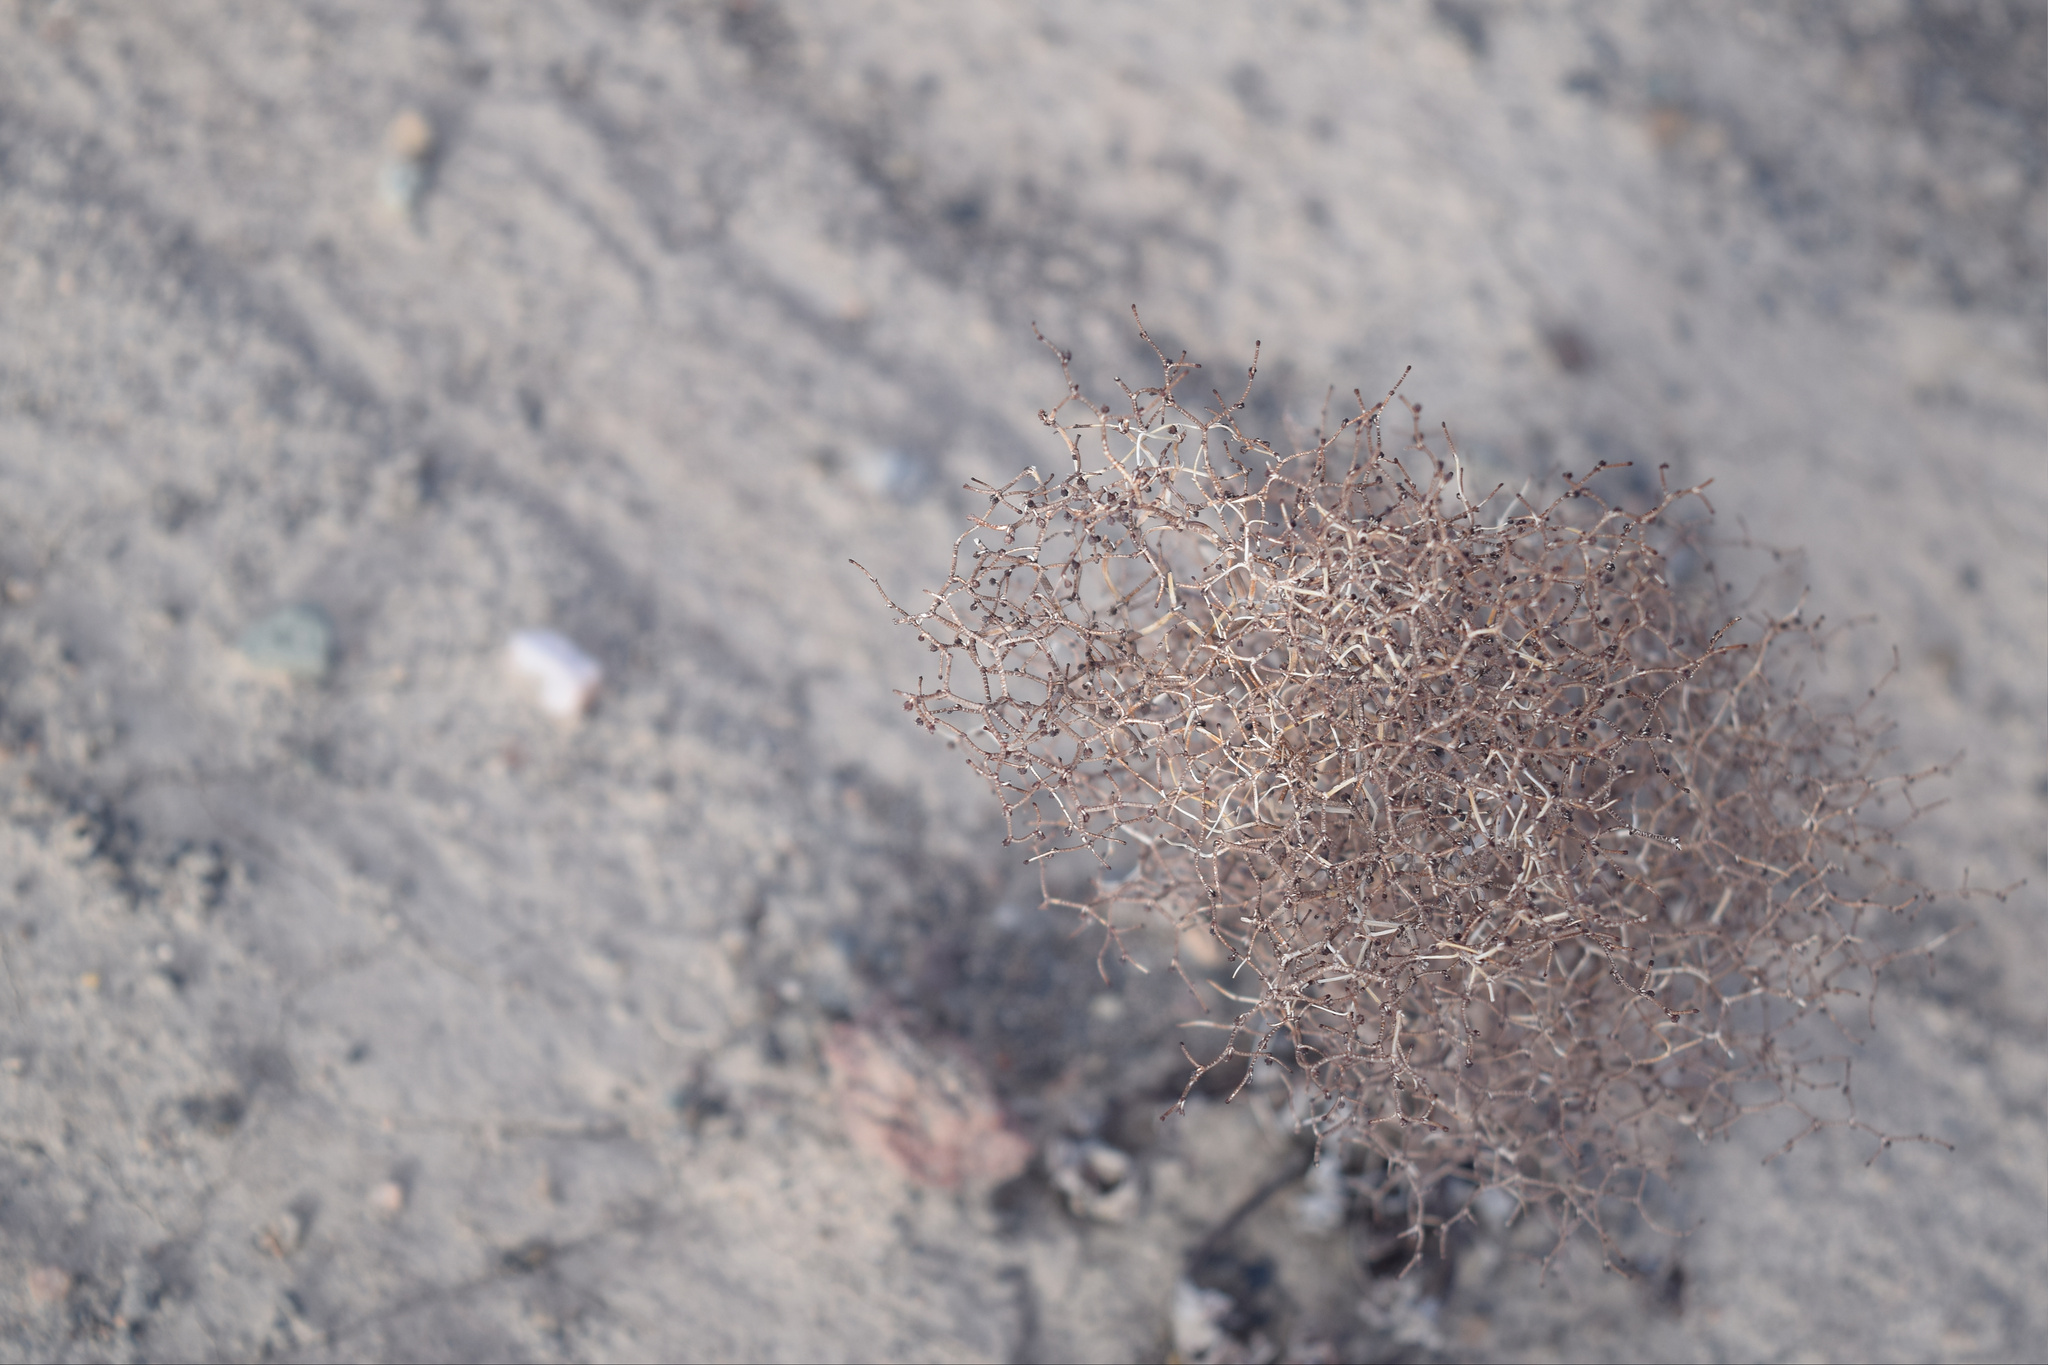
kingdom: Plantae
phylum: Tracheophyta
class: Magnoliopsida
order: Caryophyllales
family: Polygonaceae
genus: Eriogonum
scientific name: Eriogonum rixfordii
